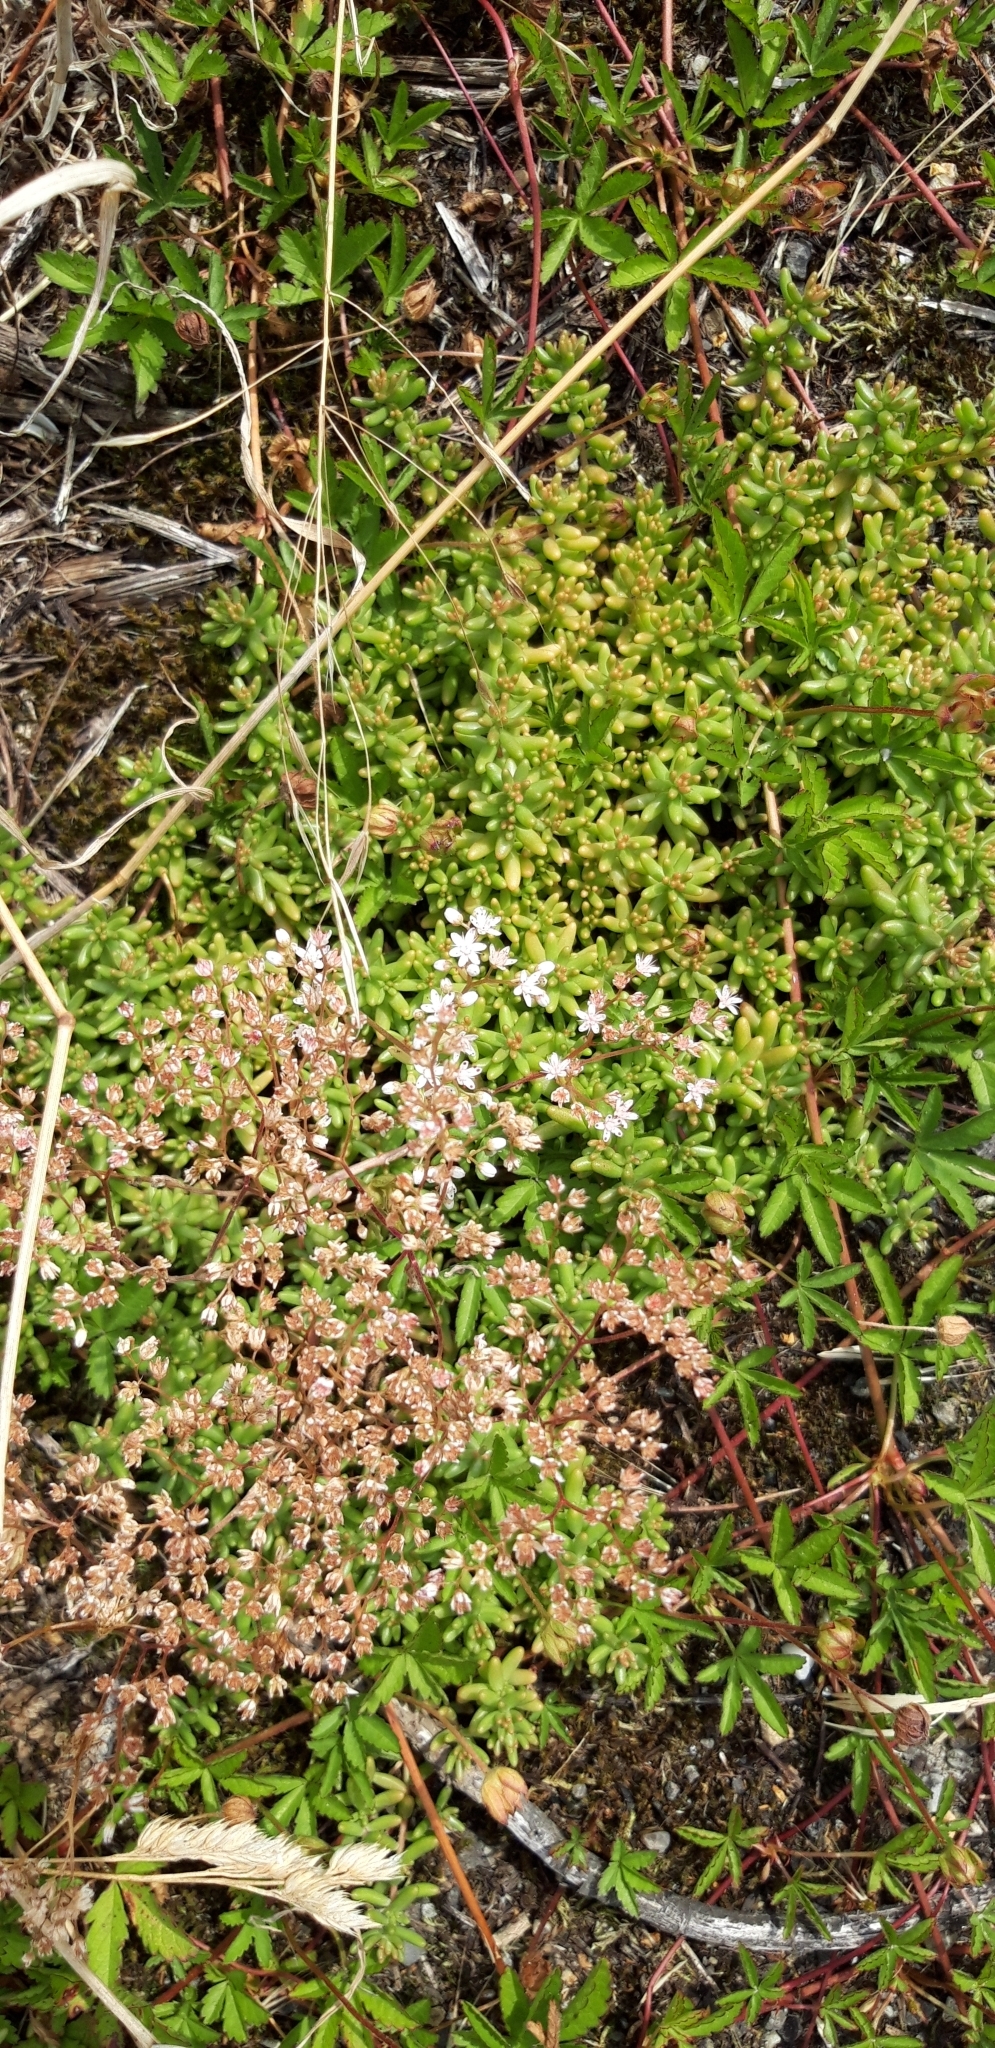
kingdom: Plantae
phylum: Tracheophyta
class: Magnoliopsida
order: Saxifragales
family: Crassulaceae
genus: Sedum
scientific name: Sedum album
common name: White stonecrop
